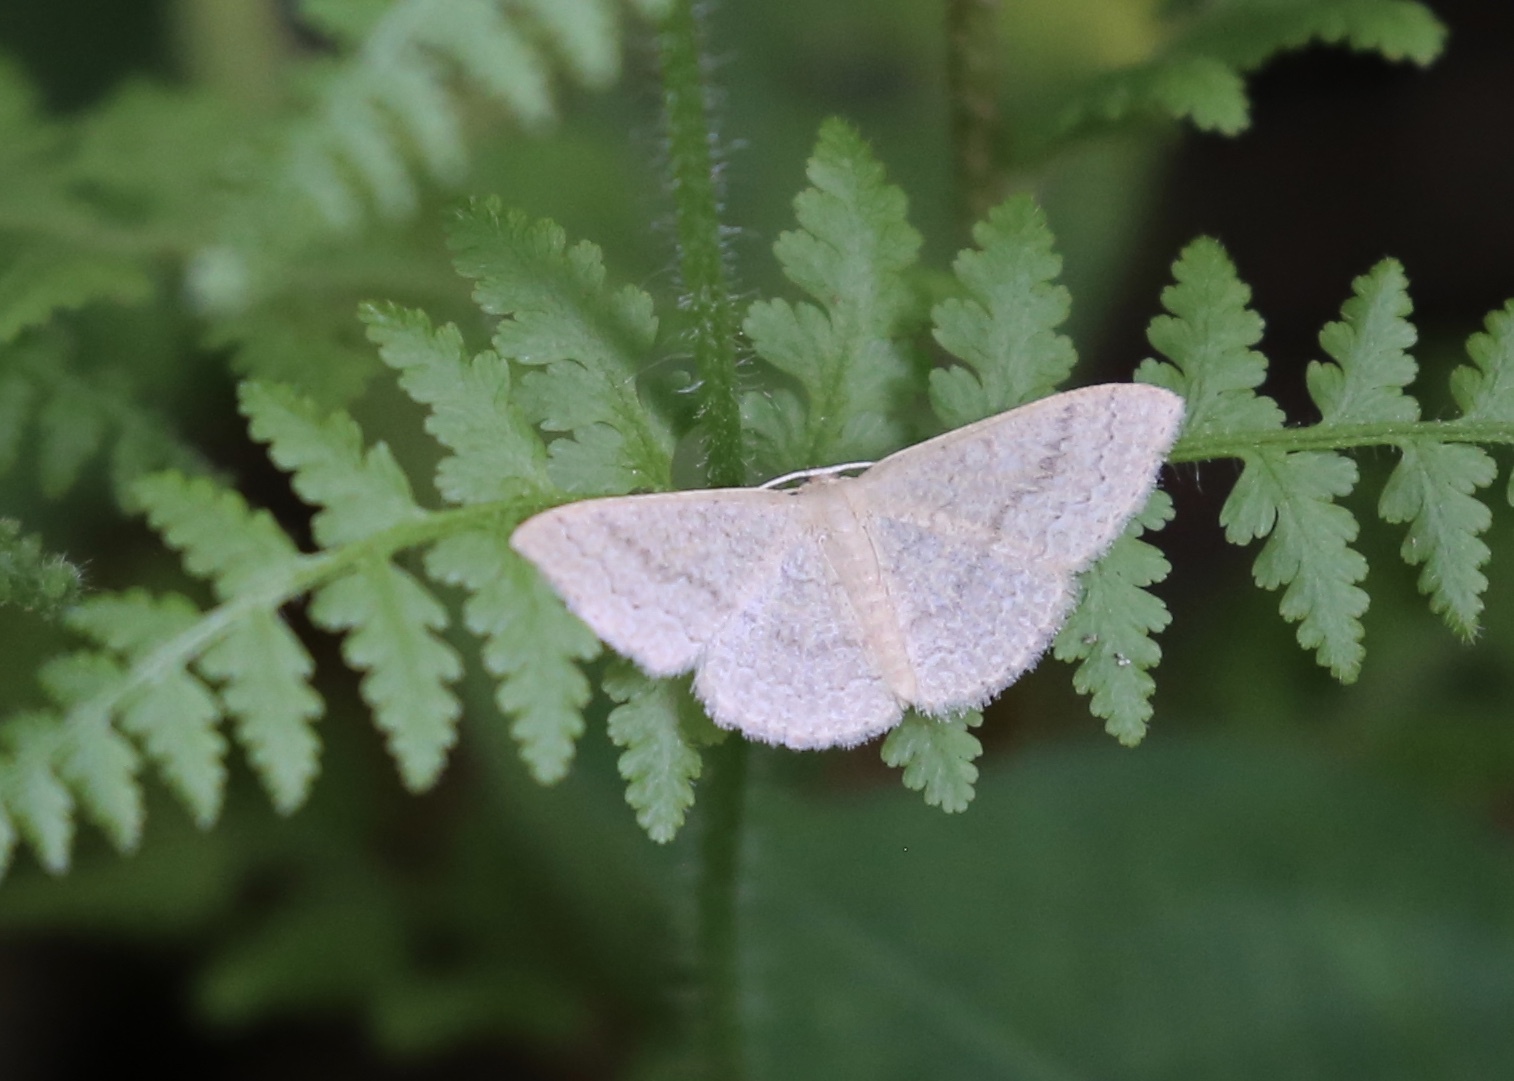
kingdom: Animalia
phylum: Arthropoda
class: Insecta
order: Lepidoptera
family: Geometridae
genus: Pleuroprucha
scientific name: Pleuroprucha insulsaria
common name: Common tan wave
